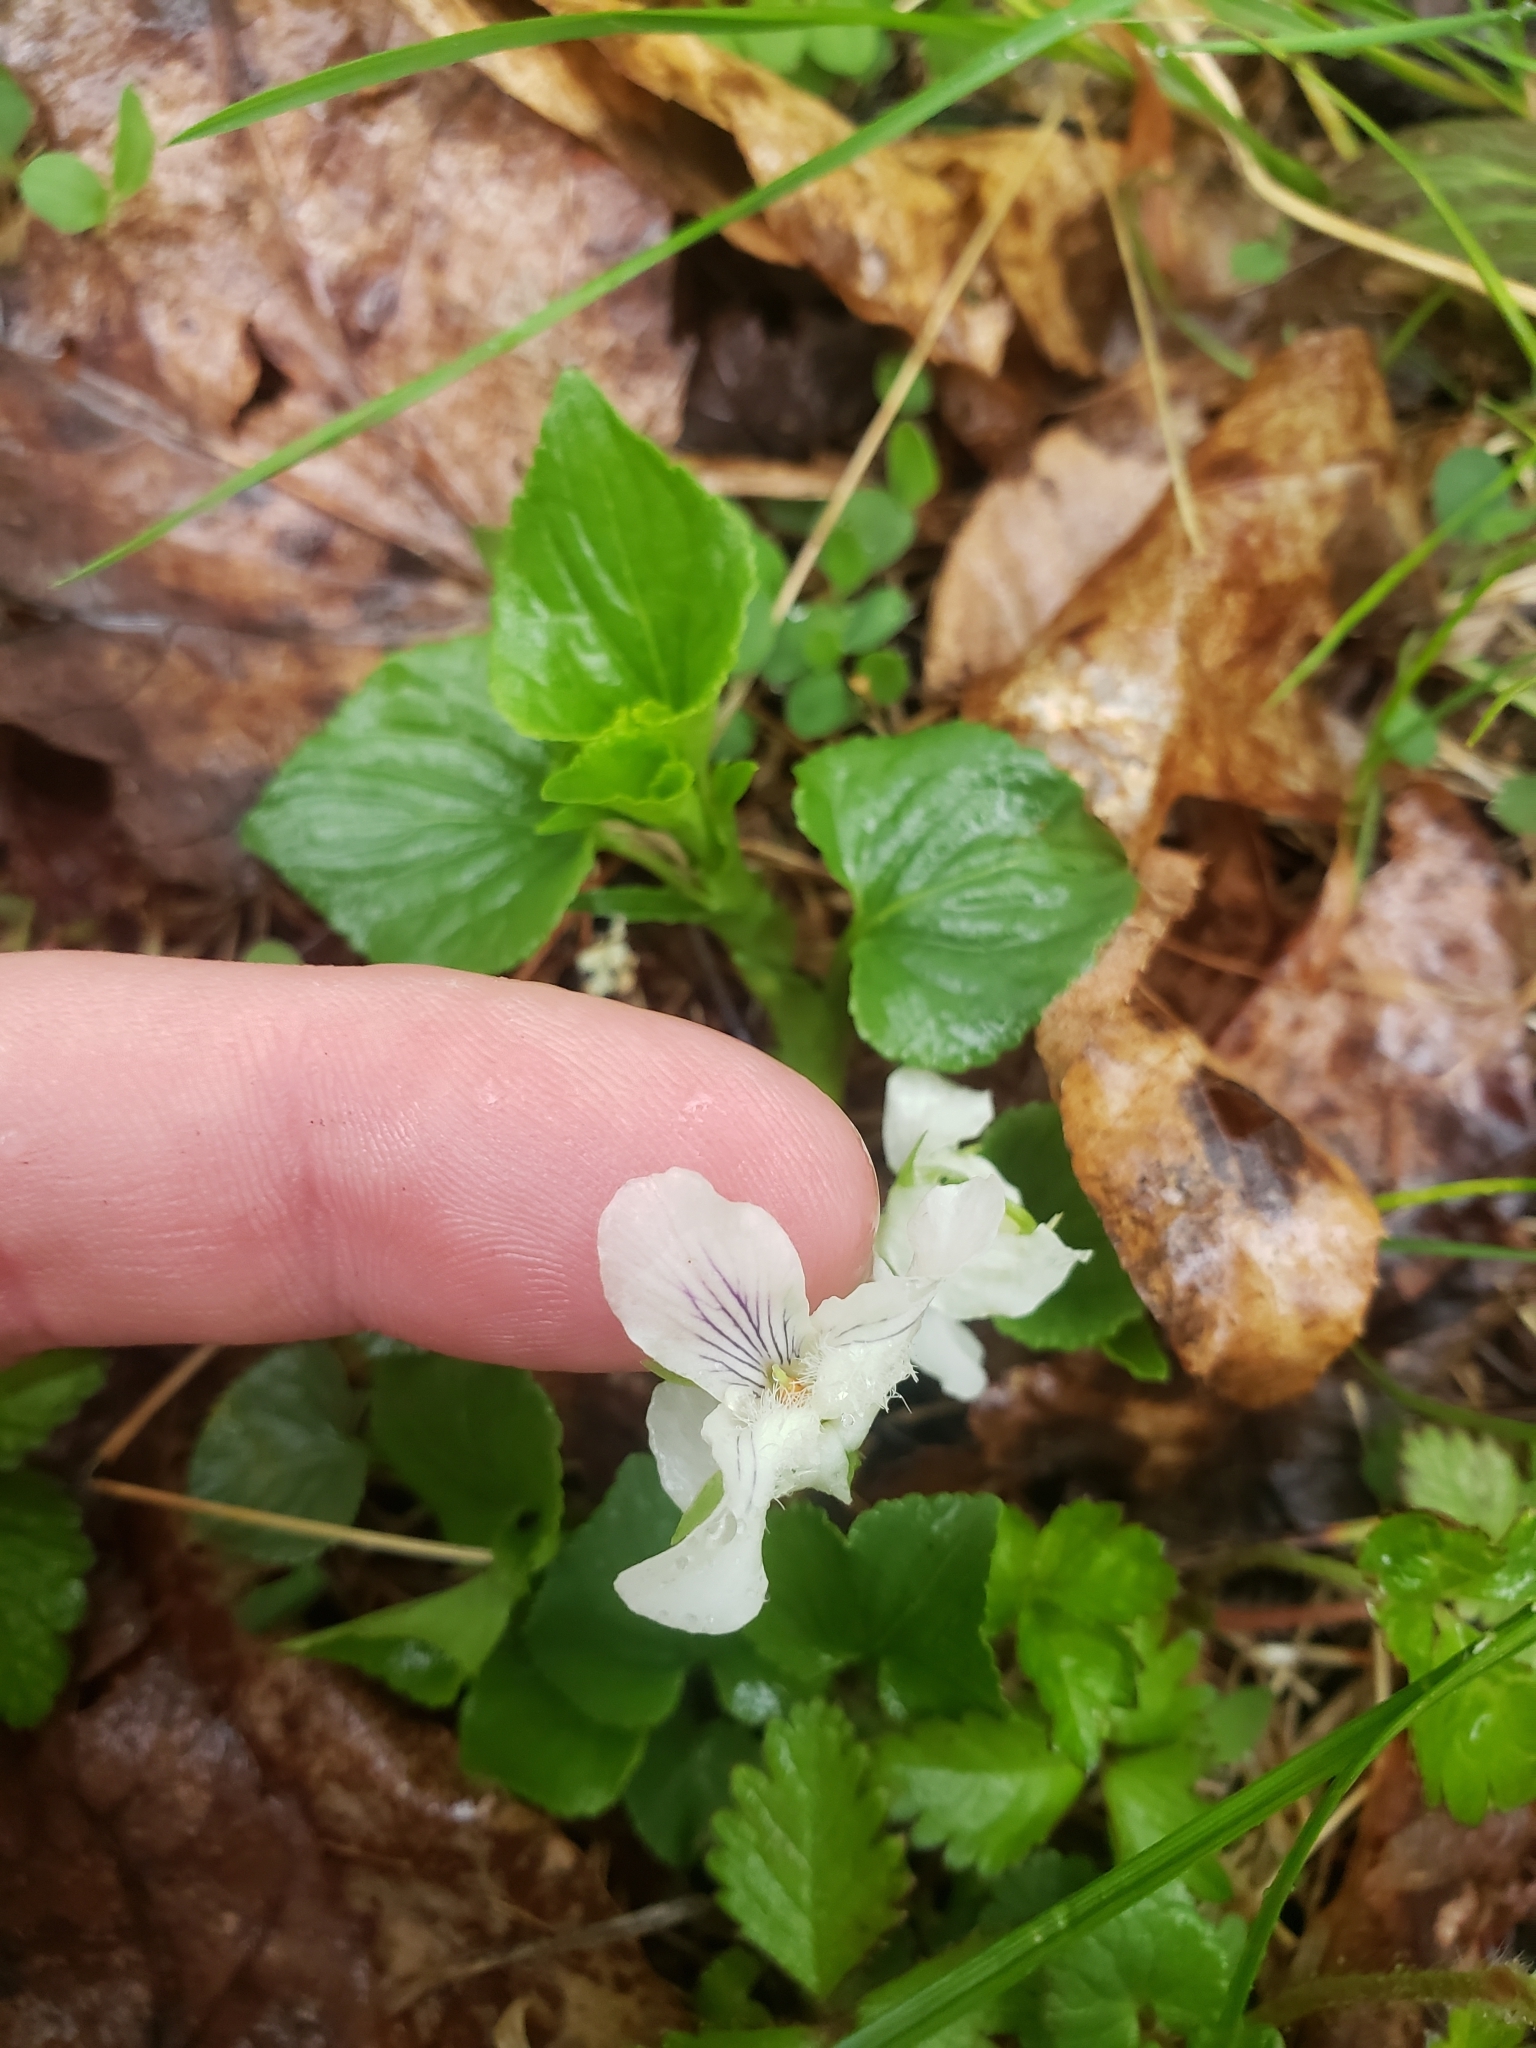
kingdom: Plantae
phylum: Tracheophyta
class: Magnoliopsida
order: Malpighiales
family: Violaceae
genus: Viola
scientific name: Viola striata
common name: Cream violet
